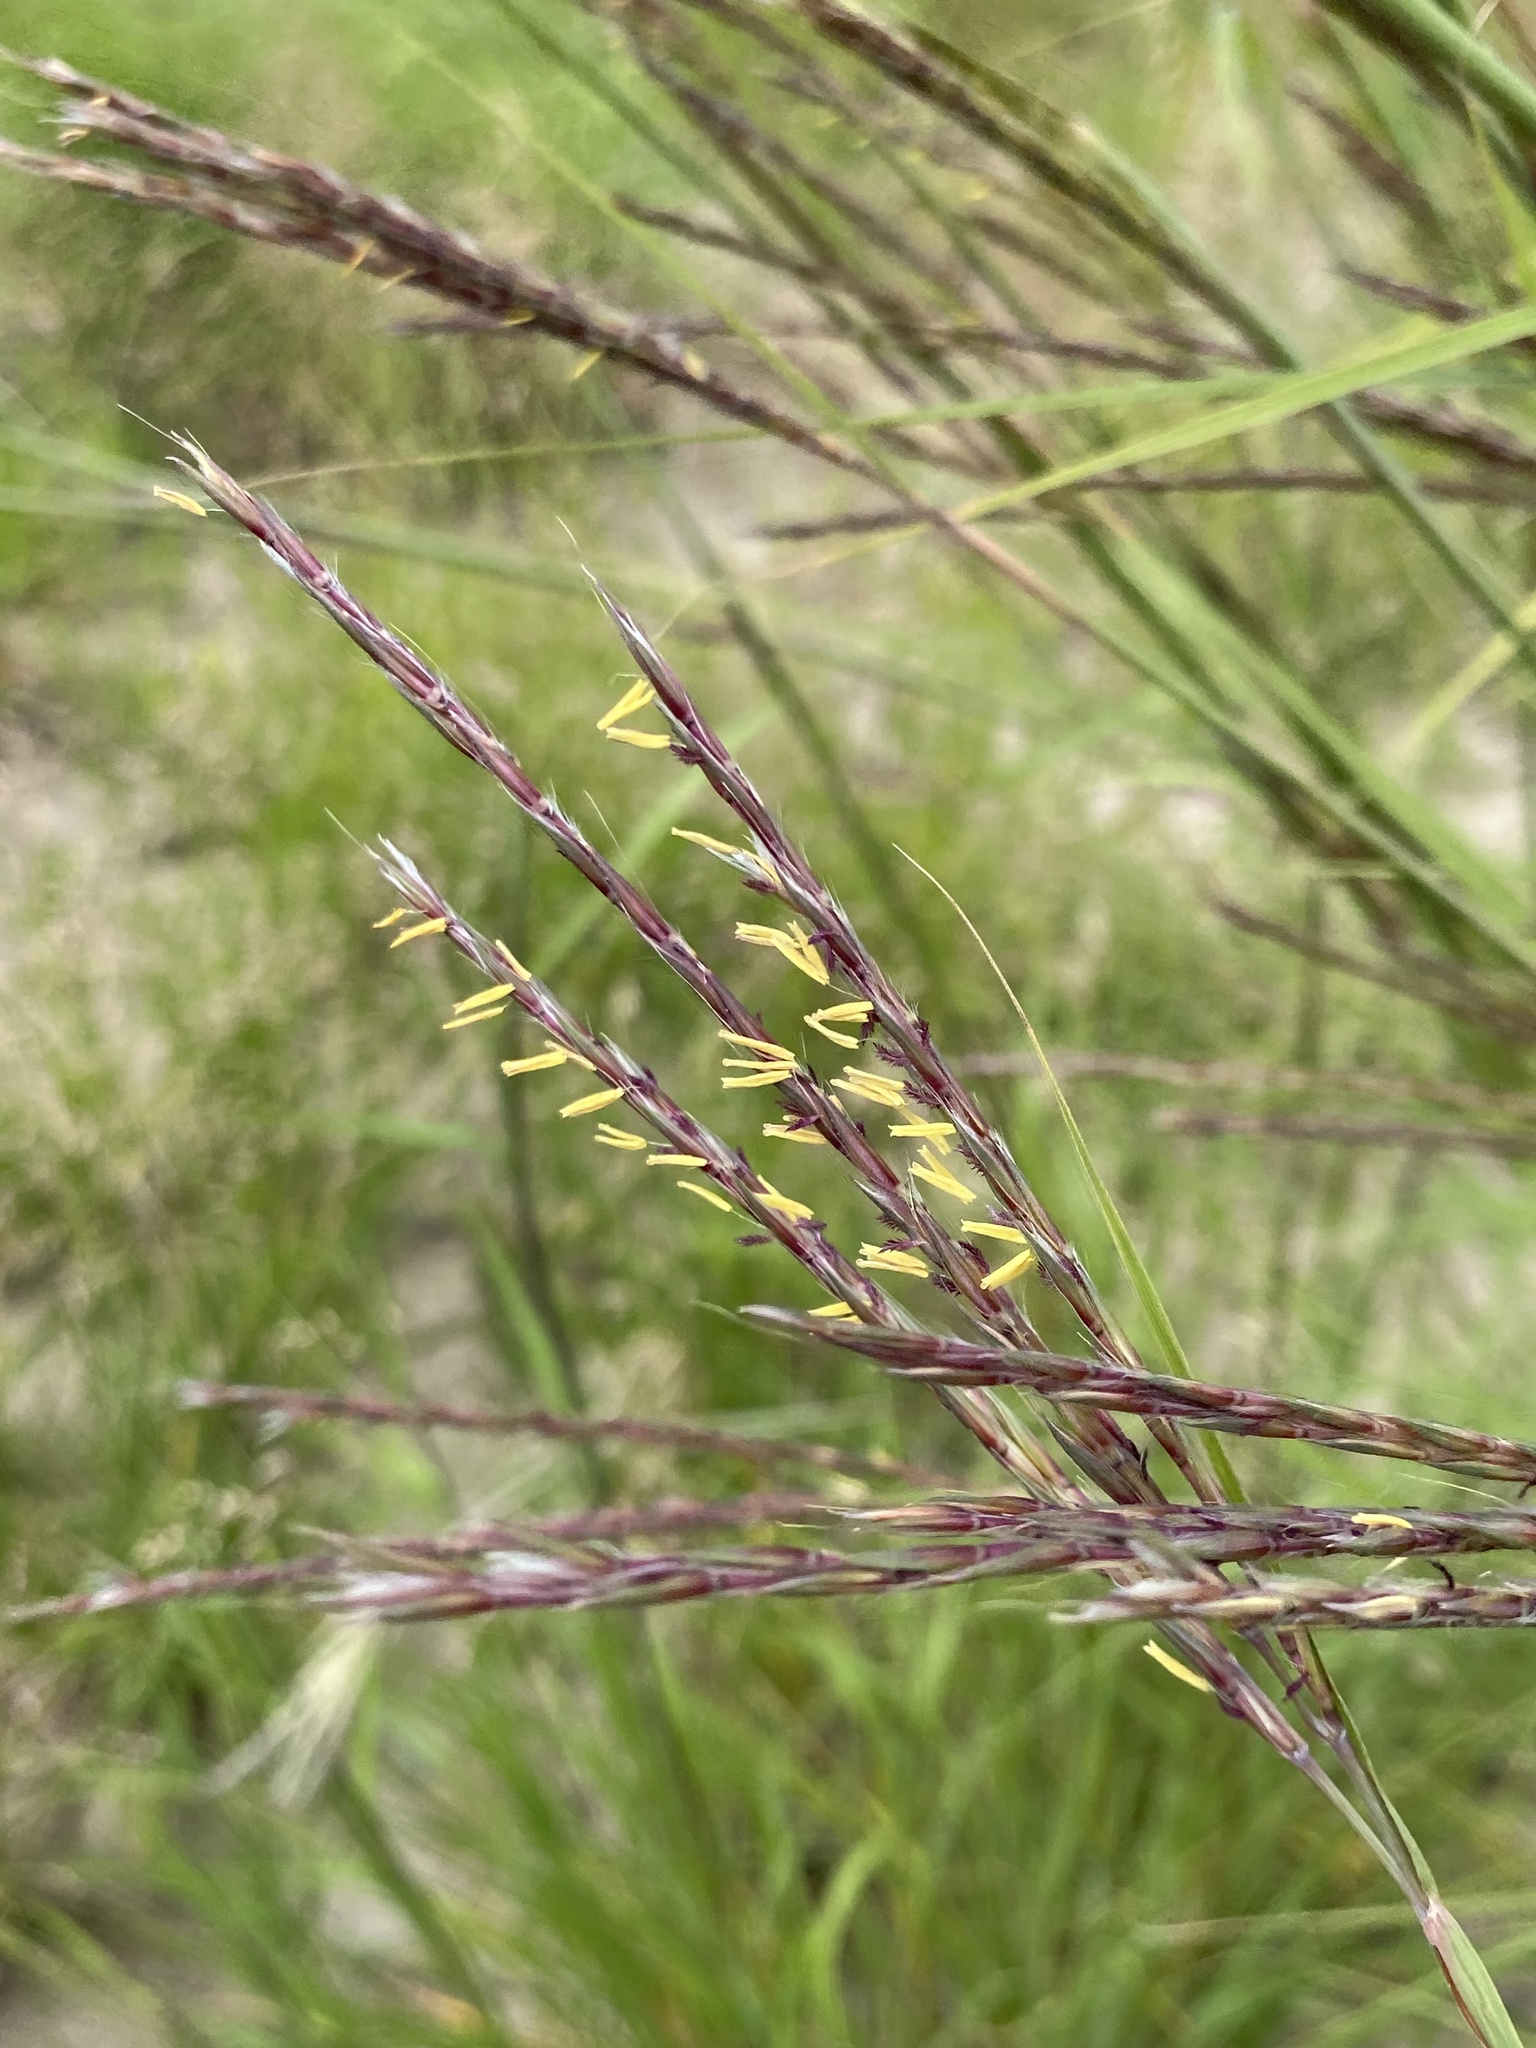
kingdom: Plantae
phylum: Tracheophyta
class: Liliopsida
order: Poales
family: Poaceae
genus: Andropogon
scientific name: Andropogon gerardi
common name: Big bluestem
